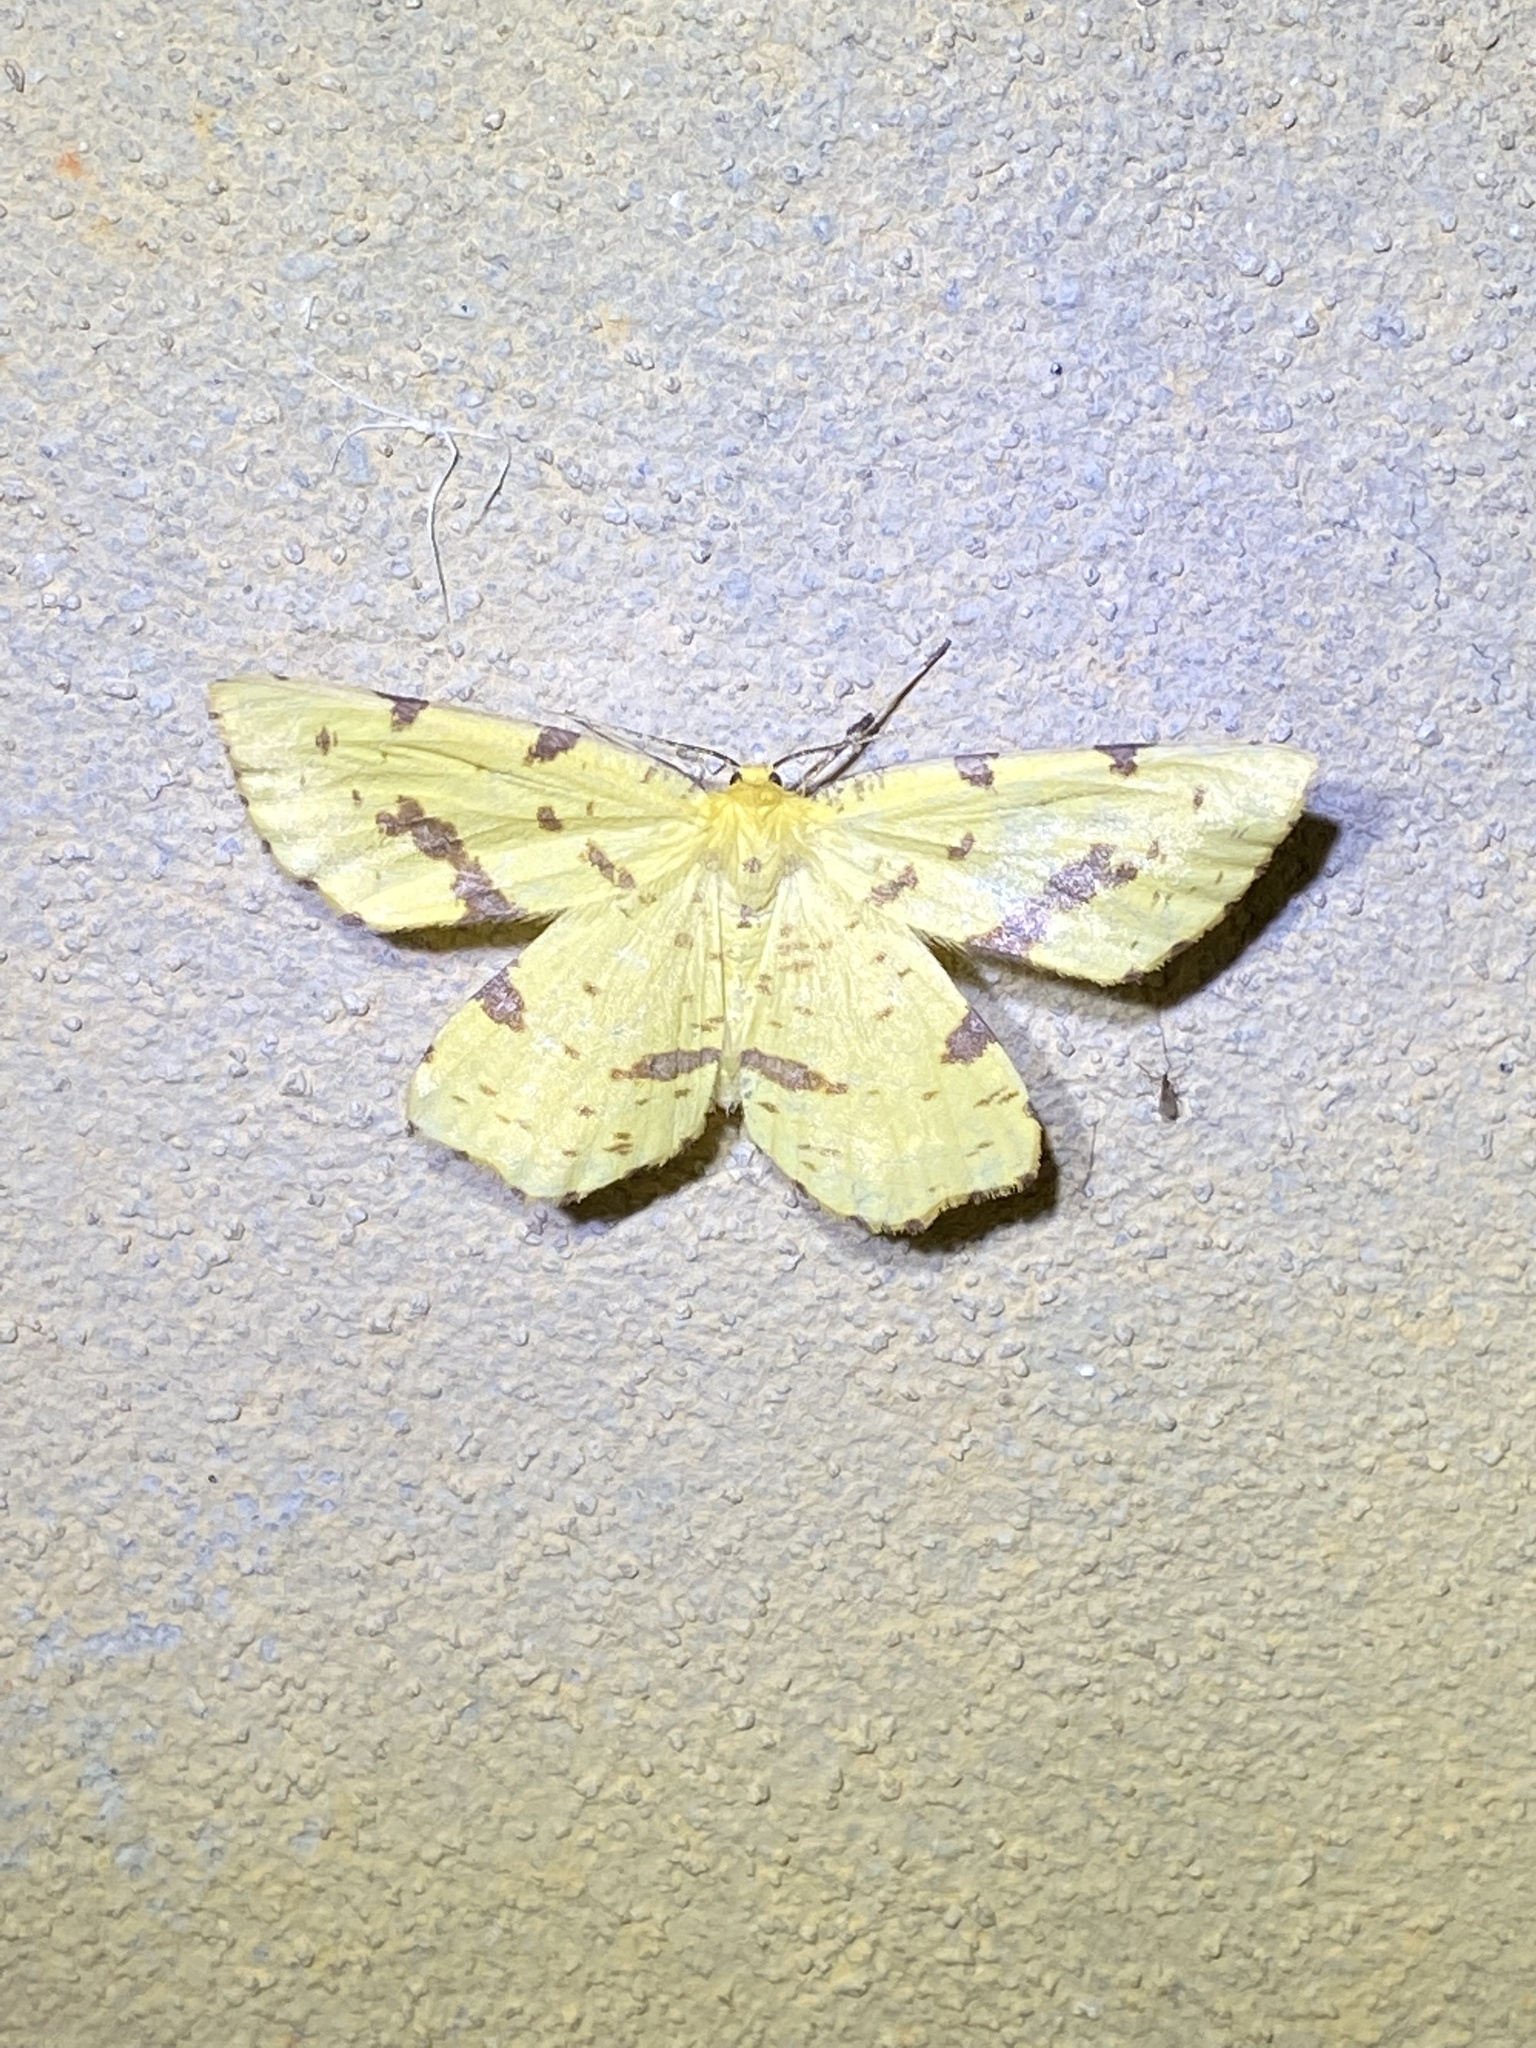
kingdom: Animalia
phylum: Arthropoda
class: Insecta
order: Lepidoptera
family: Geometridae
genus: Xanthotype
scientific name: Xanthotype
